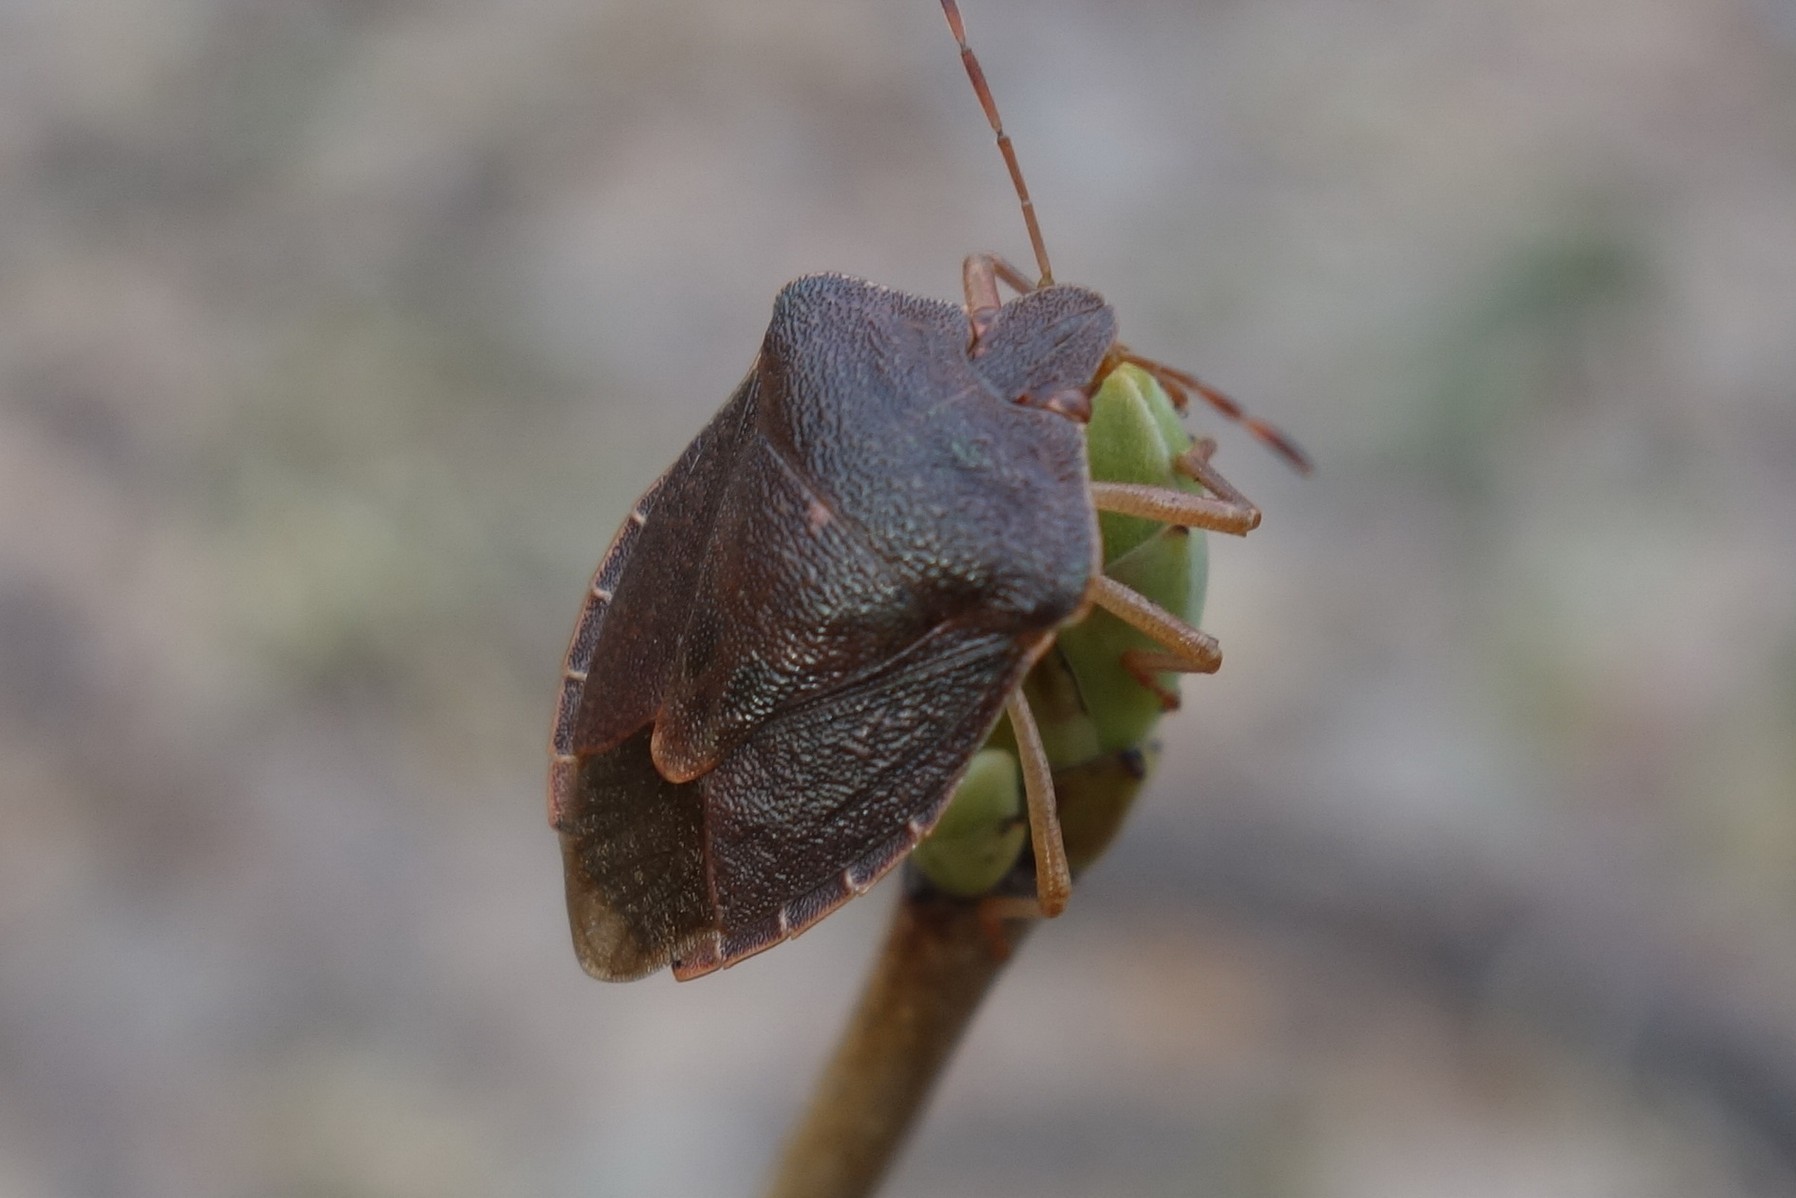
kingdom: Animalia
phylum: Arthropoda
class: Insecta
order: Hemiptera
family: Pentatomidae
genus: Palomena
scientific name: Palomena prasina
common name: Green shieldbug
